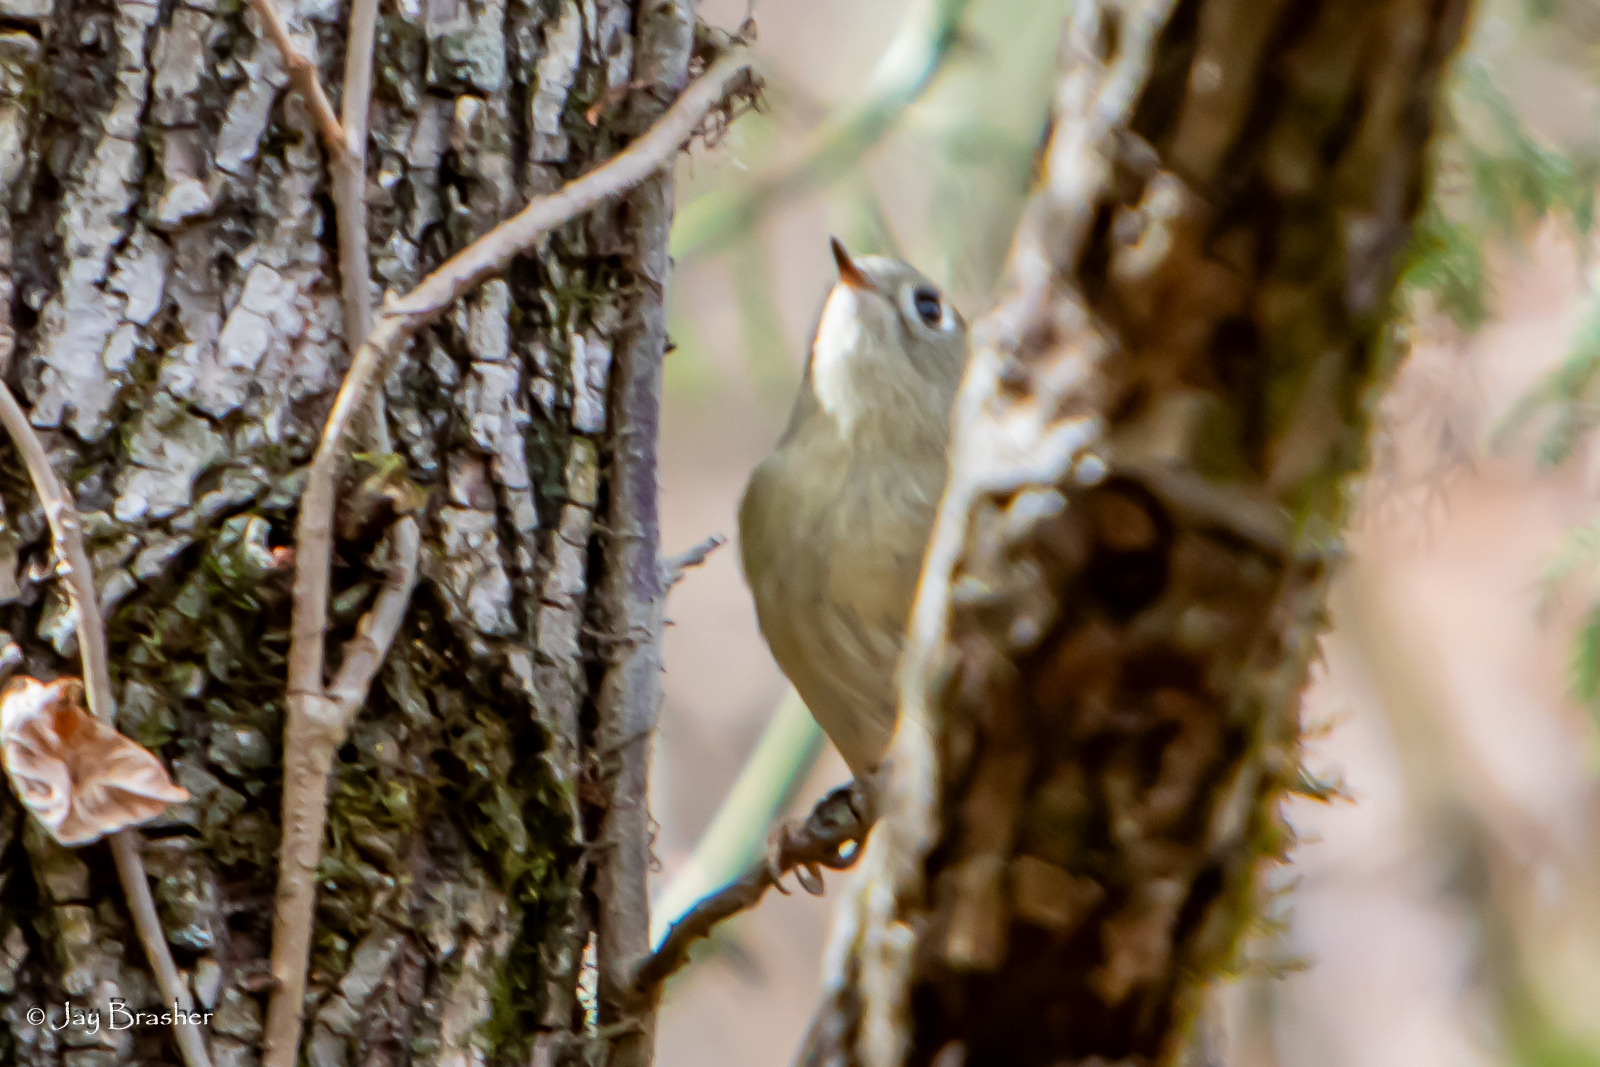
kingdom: Animalia
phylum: Chordata
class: Aves
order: Passeriformes
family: Regulidae
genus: Regulus
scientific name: Regulus calendula
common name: Ruby-crowned kinglet
